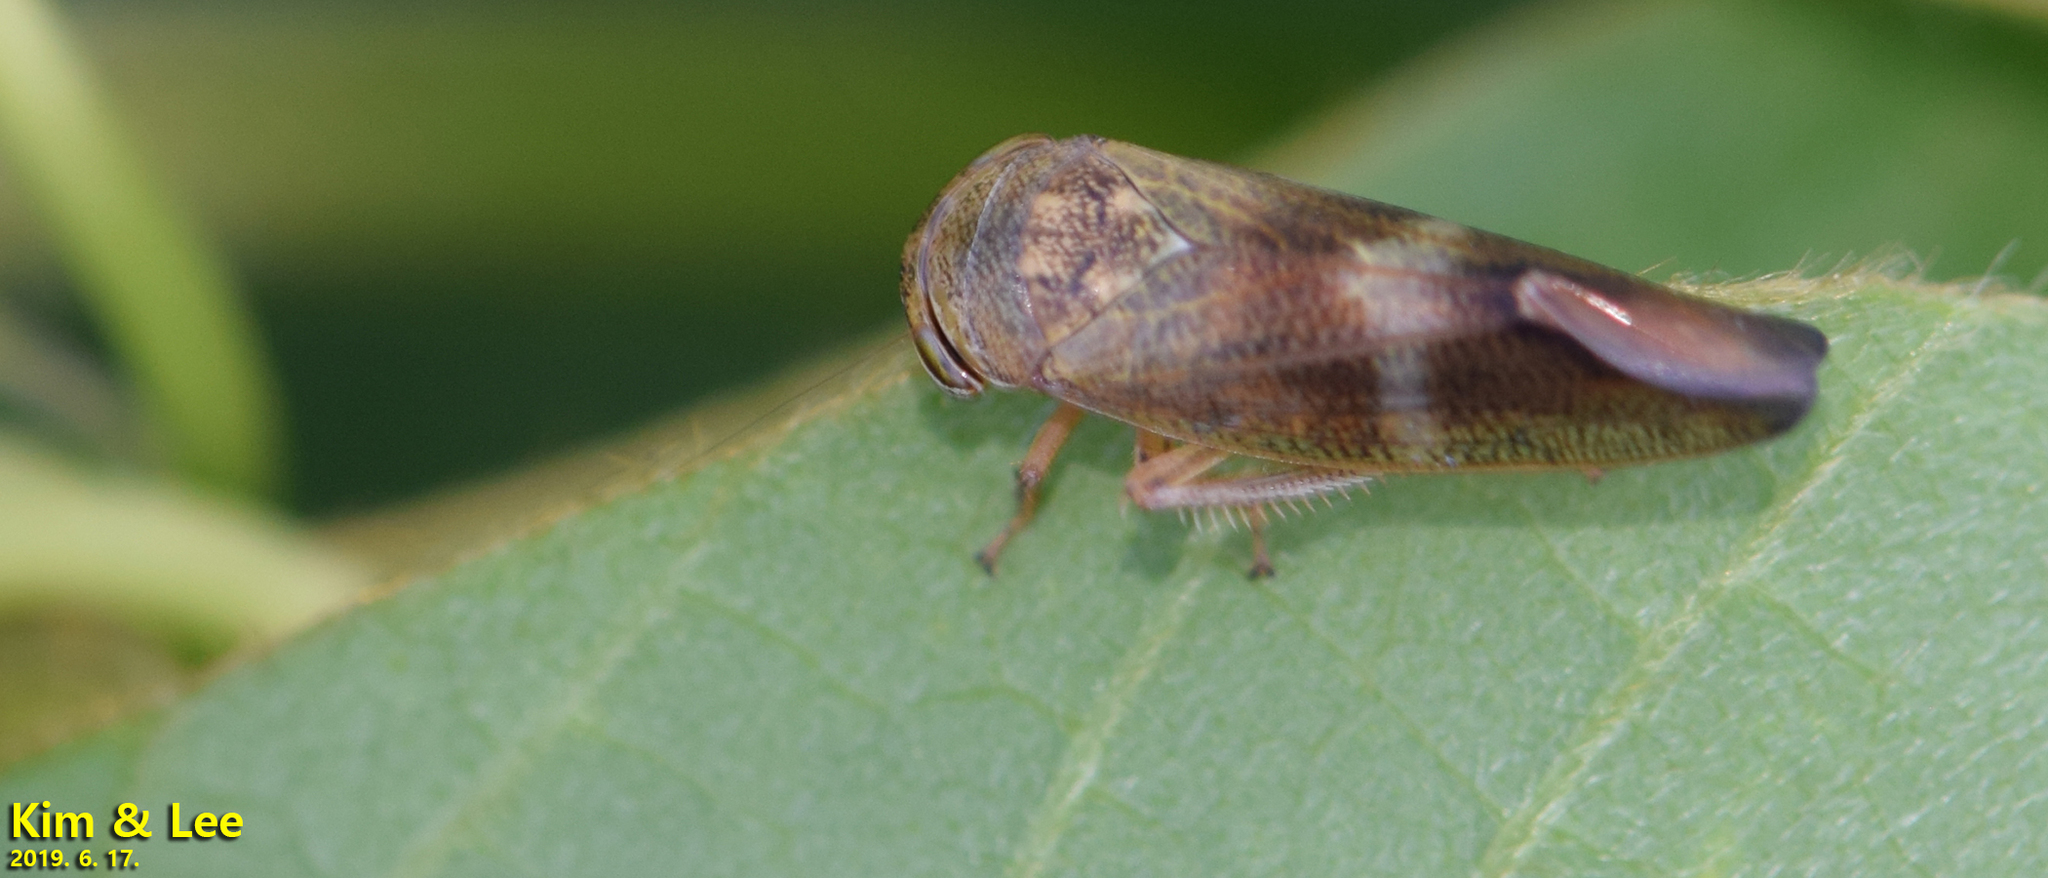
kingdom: Animalia
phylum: Arthropoda
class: Insecta
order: Hemiptera
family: Cicadellidae
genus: Drabescus
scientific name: Drabescus
